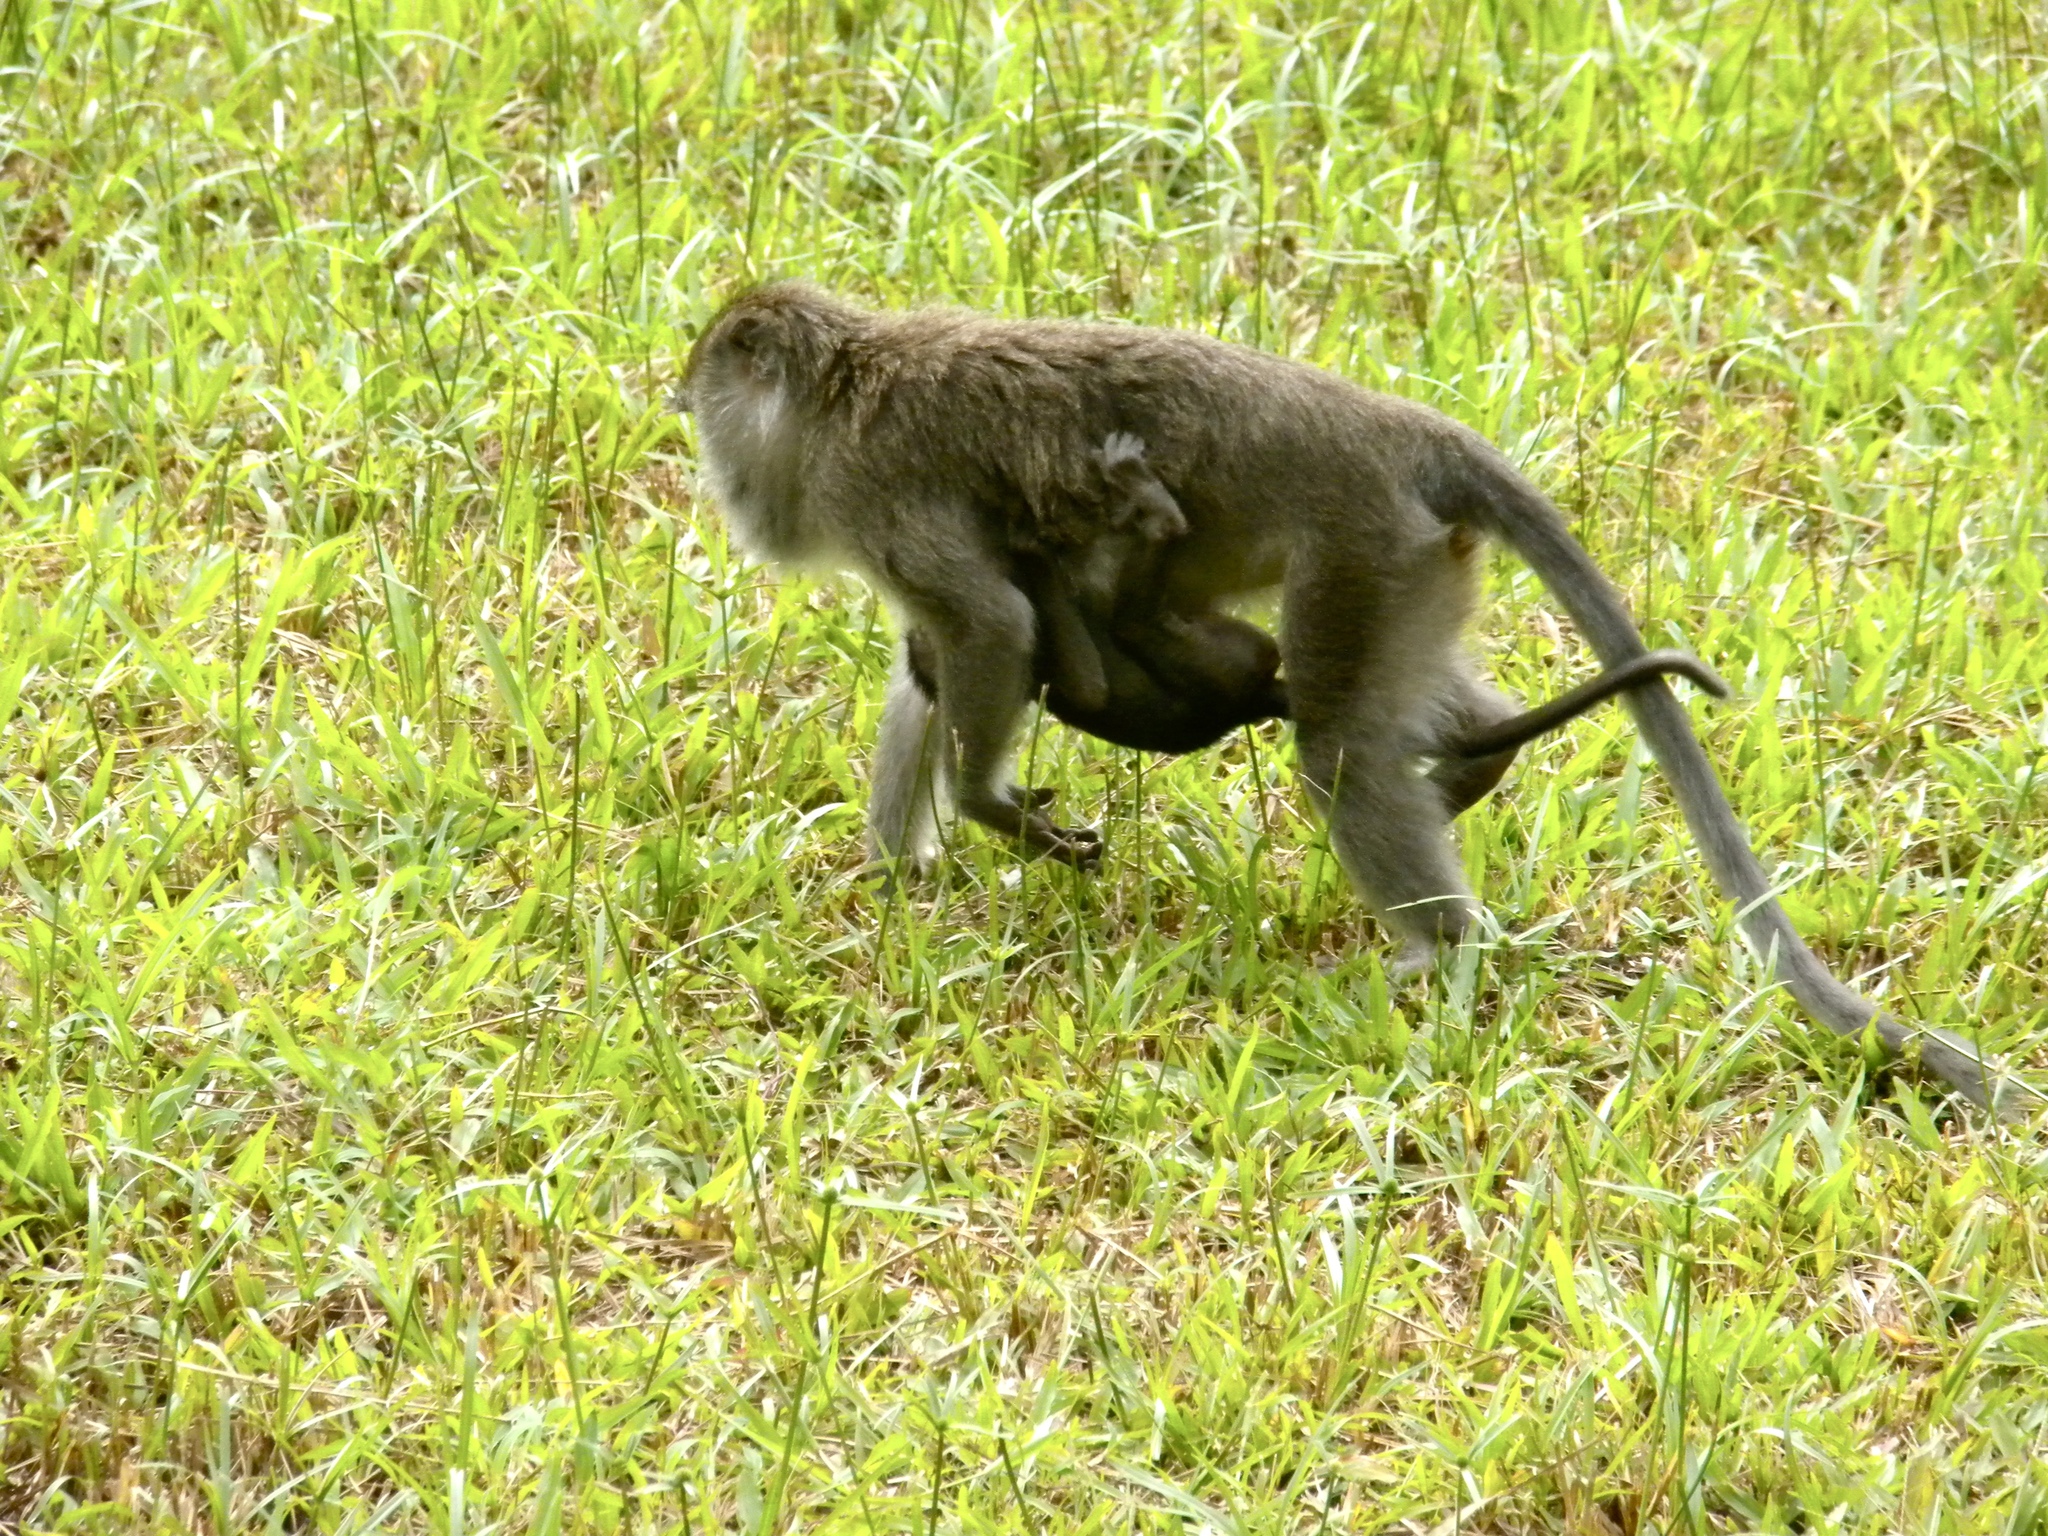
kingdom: Animalia
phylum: Chordata
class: Mammalia
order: Primates
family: Cercopithecidae
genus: Macaca
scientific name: Macaca fascicularis
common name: Crab-eating macaque
